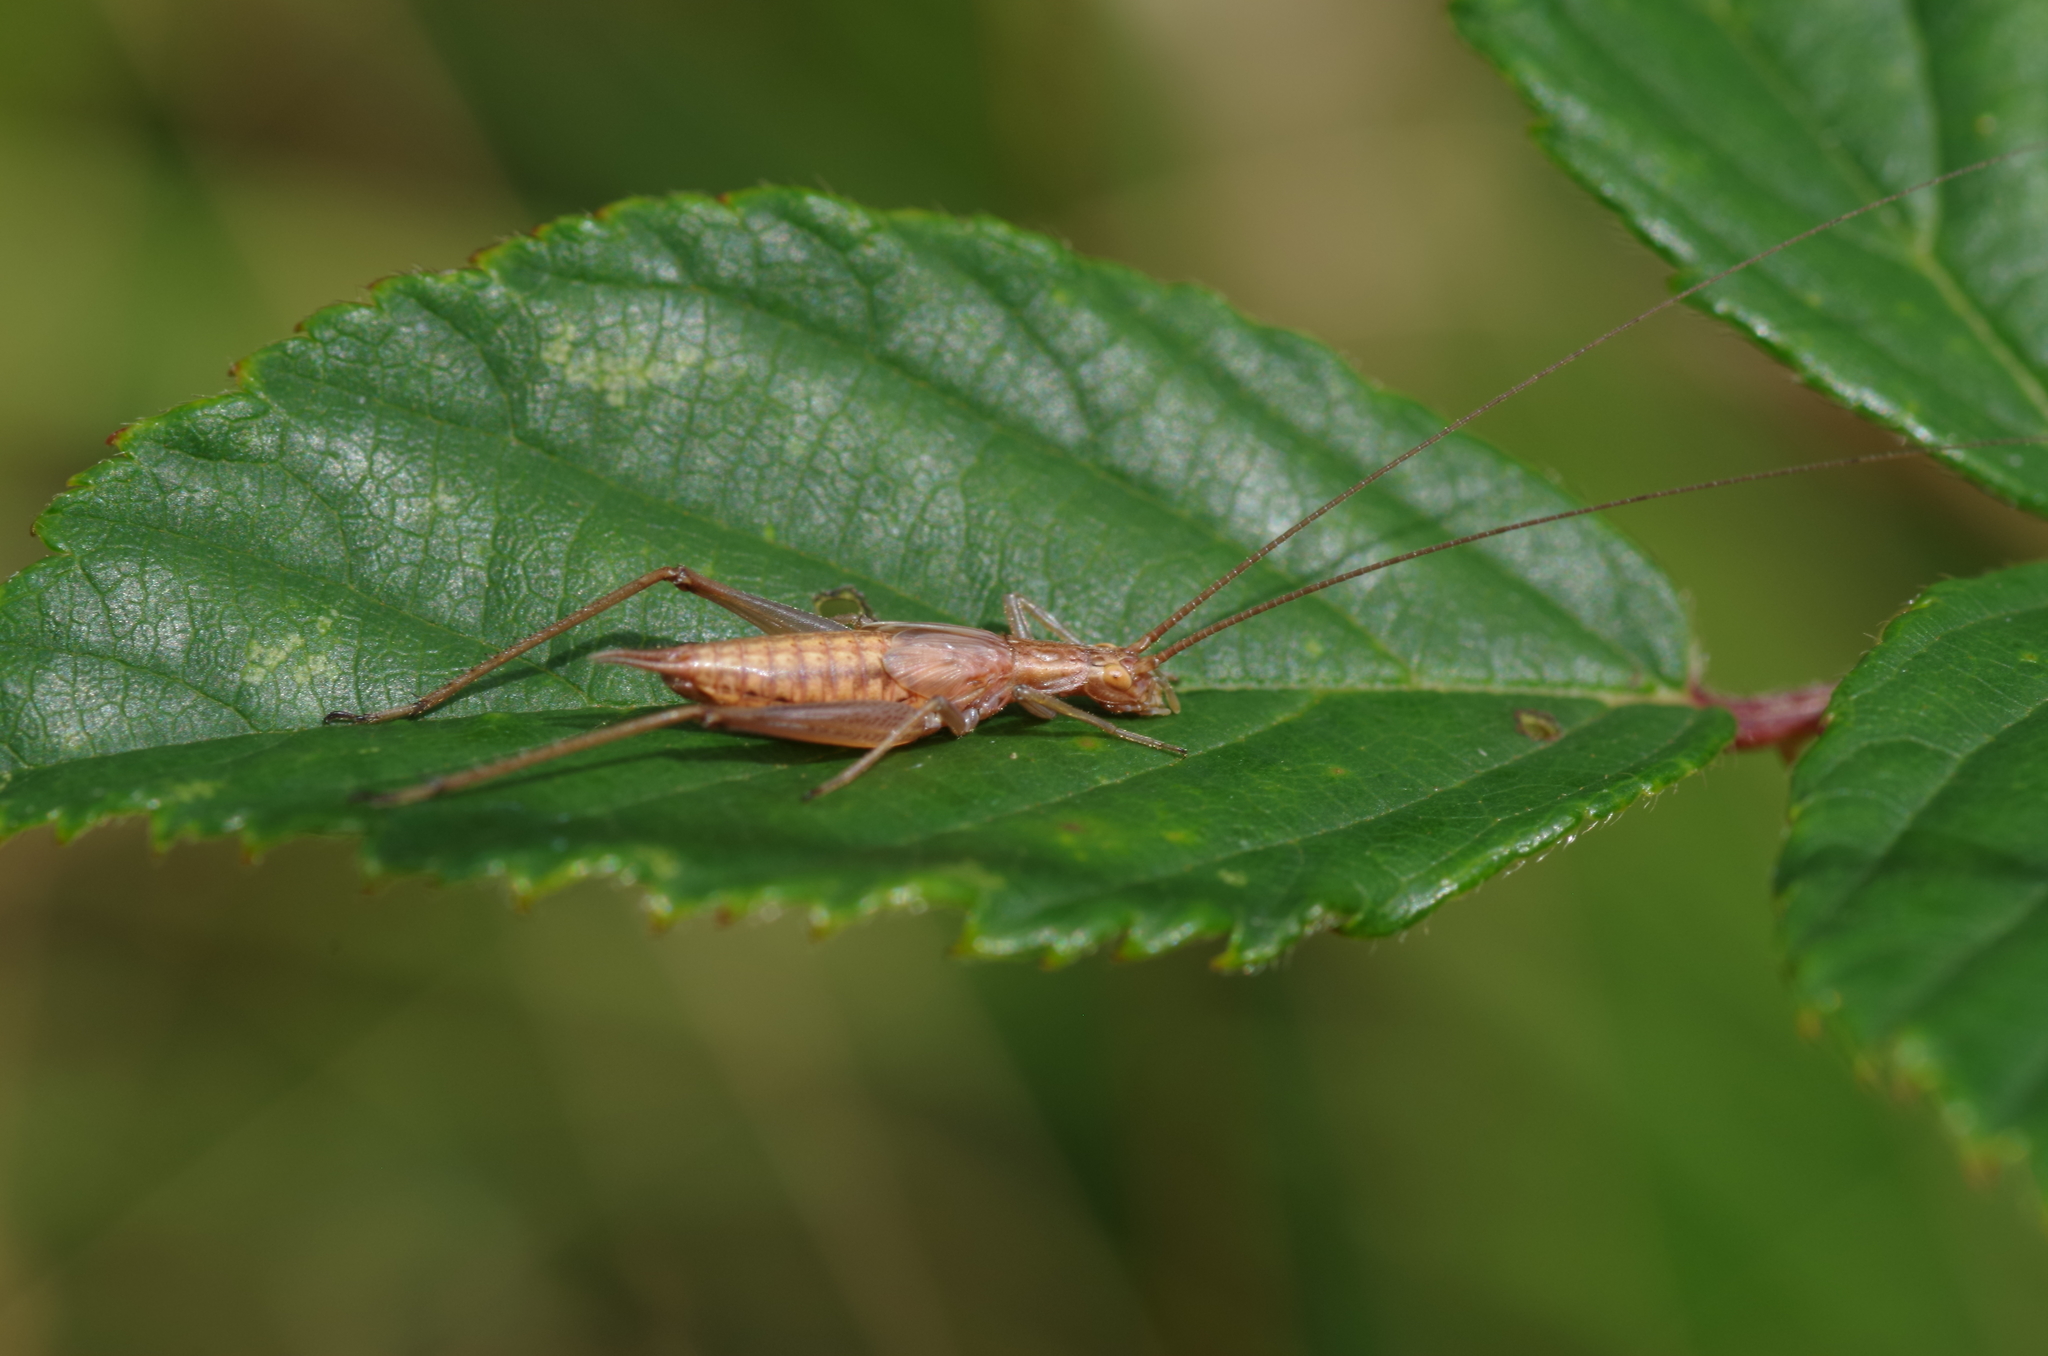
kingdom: Animalia
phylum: Arthropoda
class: Insecta
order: Orthoptera
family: Gryllidae
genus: Oecanthus
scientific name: Oecanthus pellucens
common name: Tree-cricket
